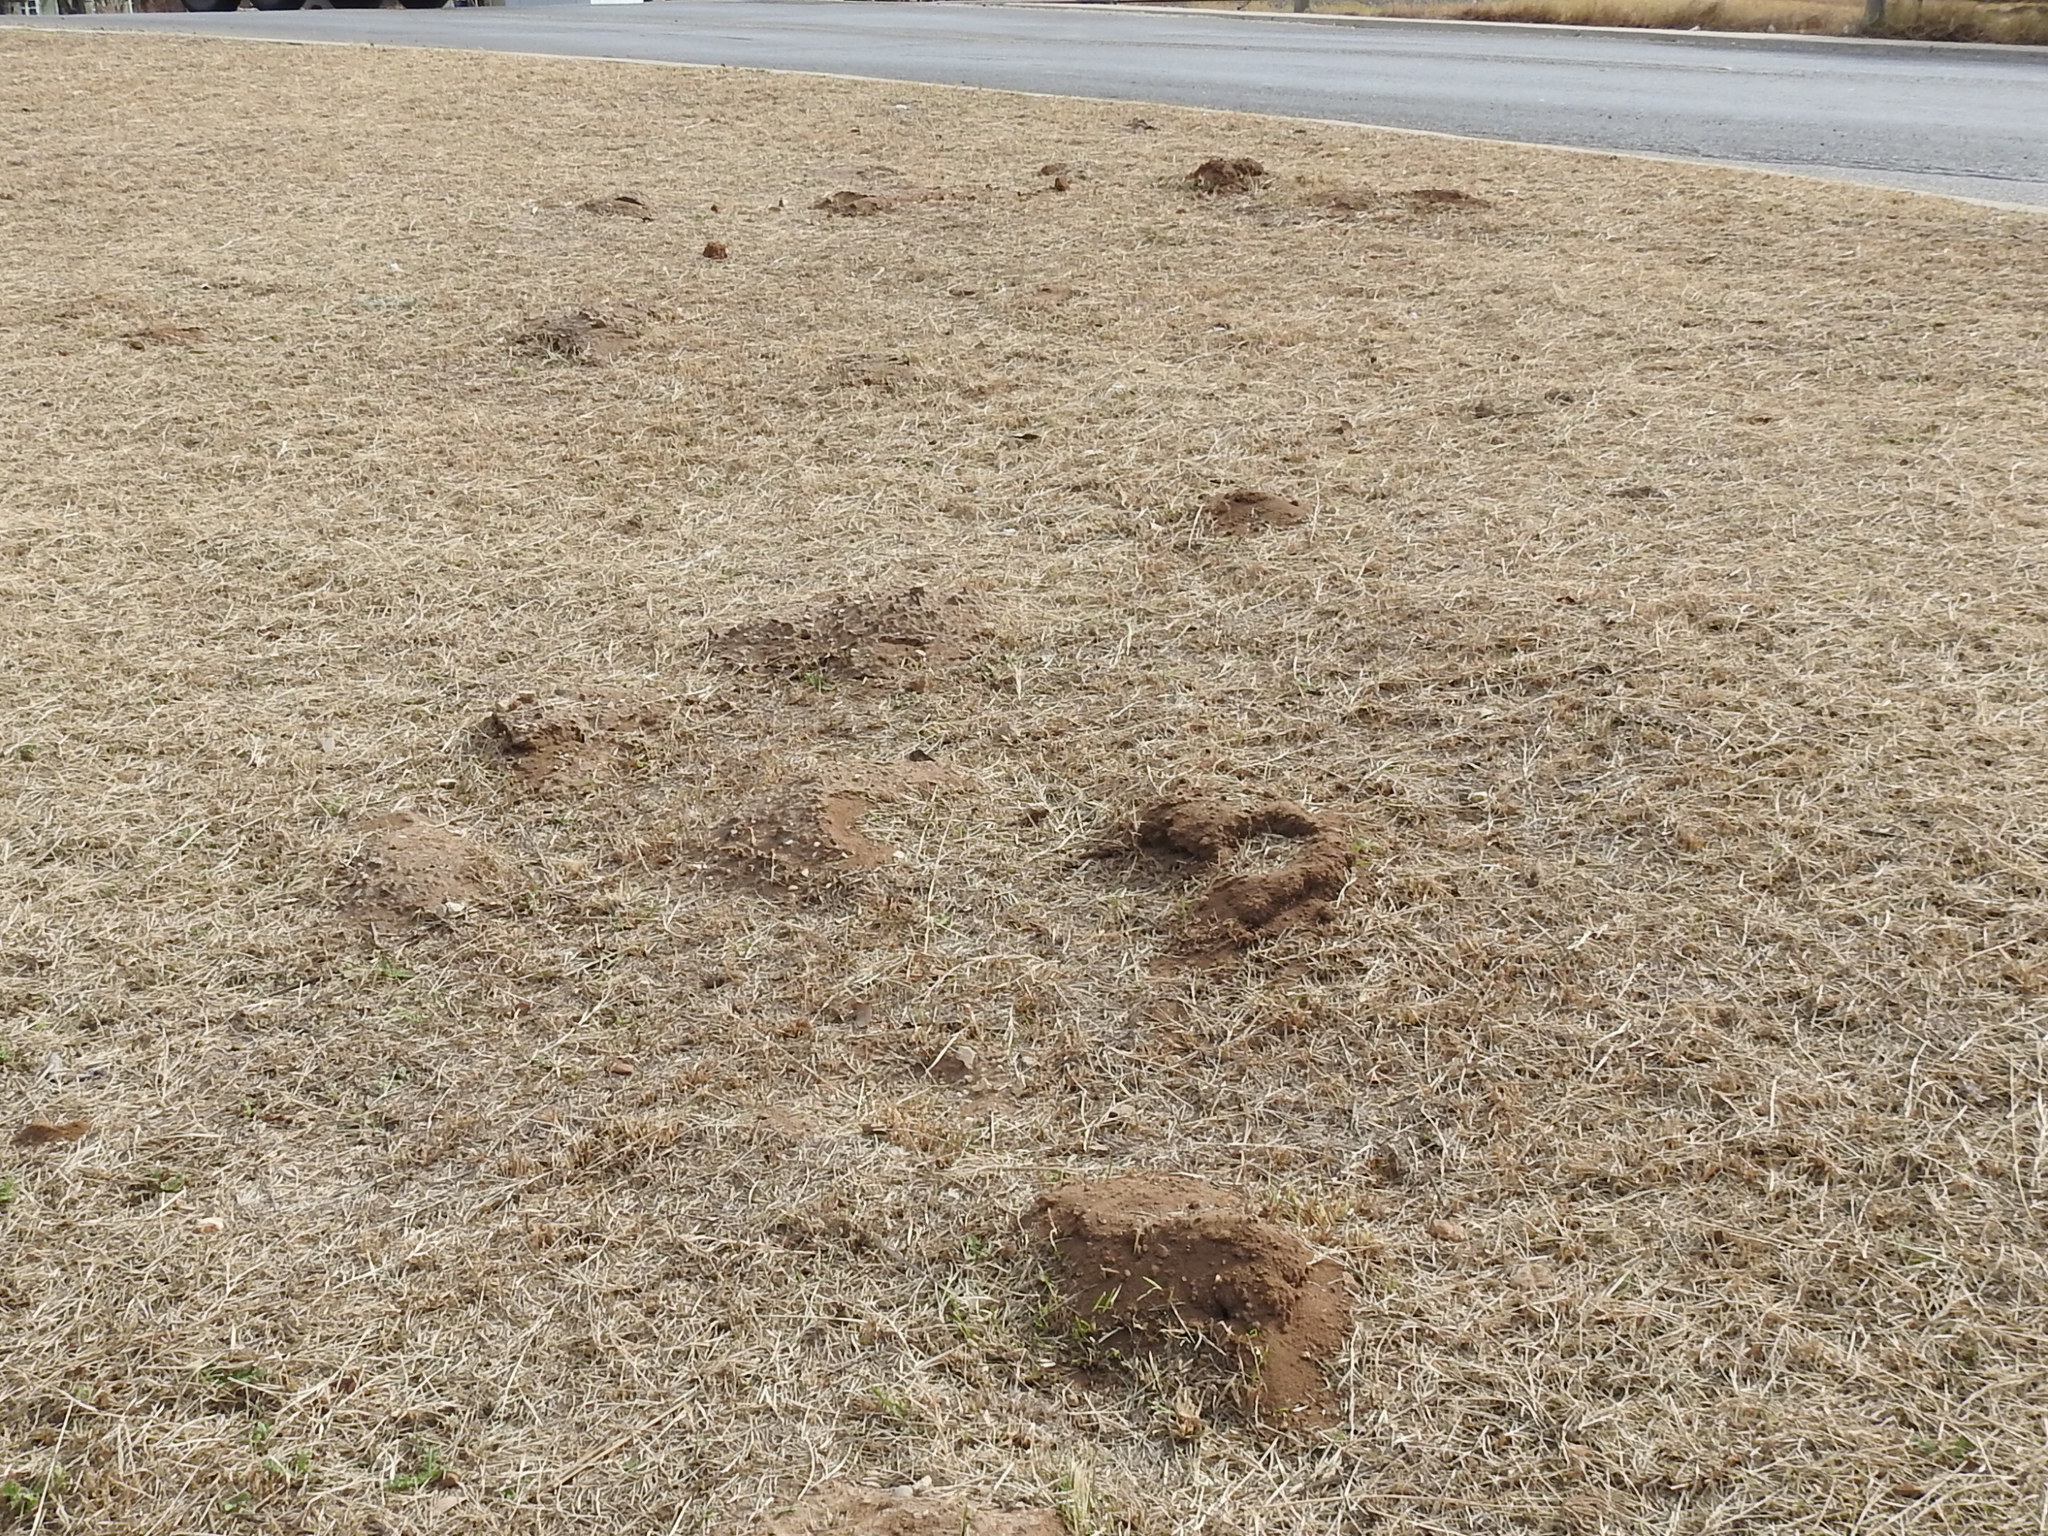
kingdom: Animalia
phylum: Chordata
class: Mammalia
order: Rodentia
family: Geomyidae
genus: Geomys
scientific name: Geomys attwateri
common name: Attwater's pocket gopher
